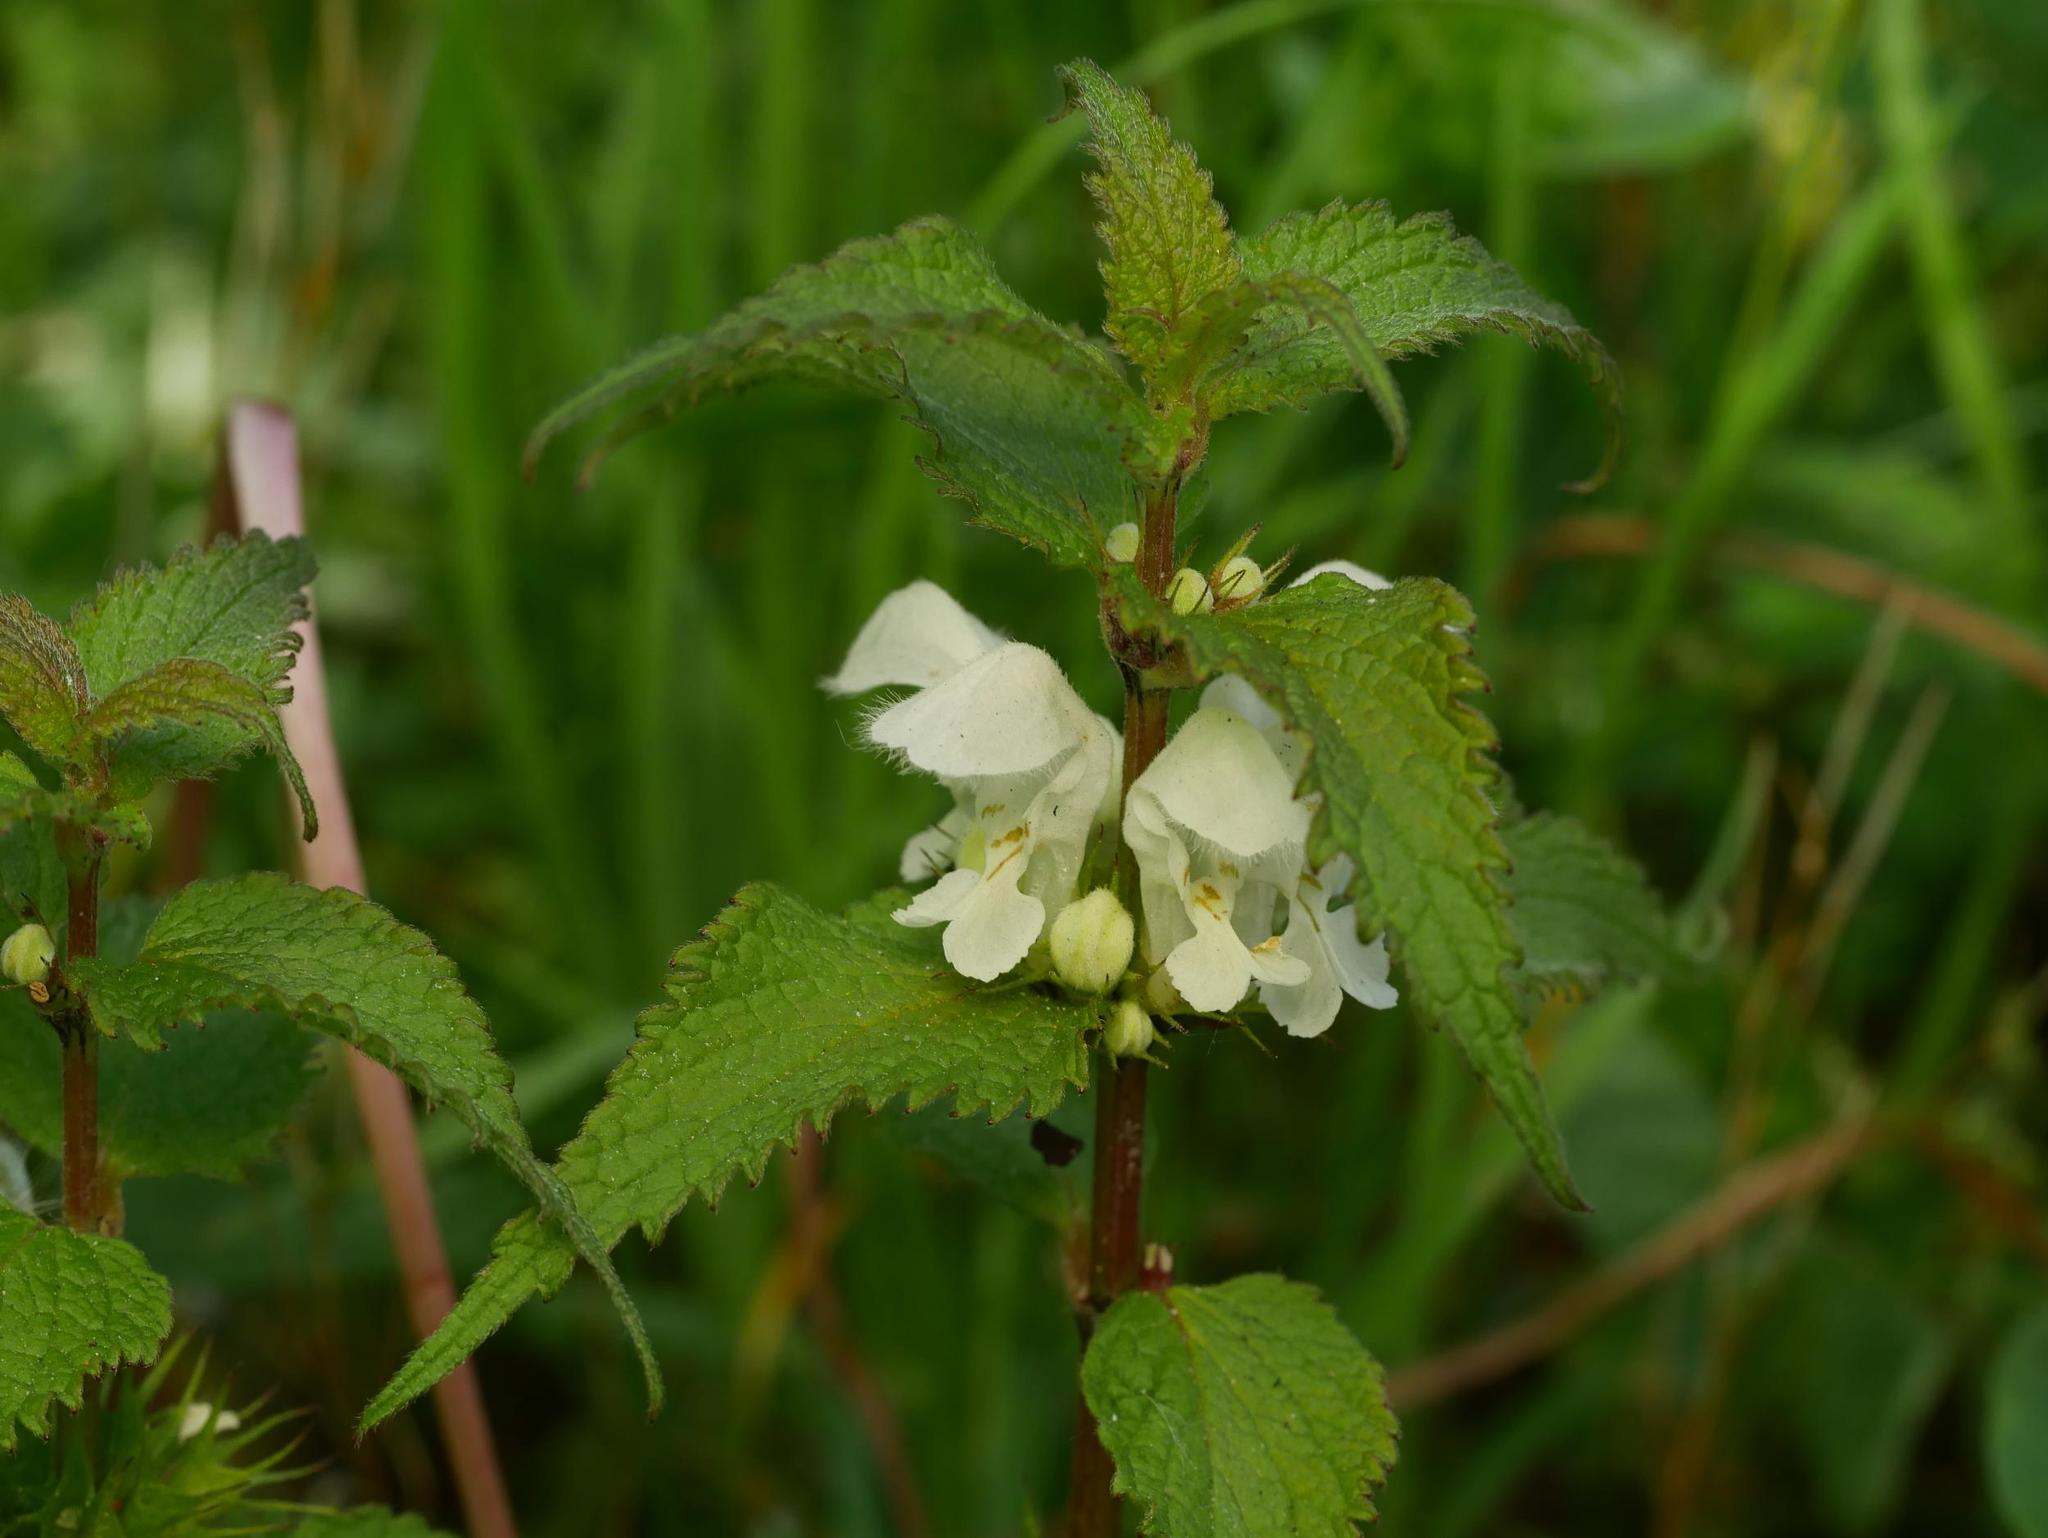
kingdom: Plantae
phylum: Tracheophyta
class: Magnoliopsida
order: Lamiales
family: Lamiaceae
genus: Lamium
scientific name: Lamium album
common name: White dead-nettle
